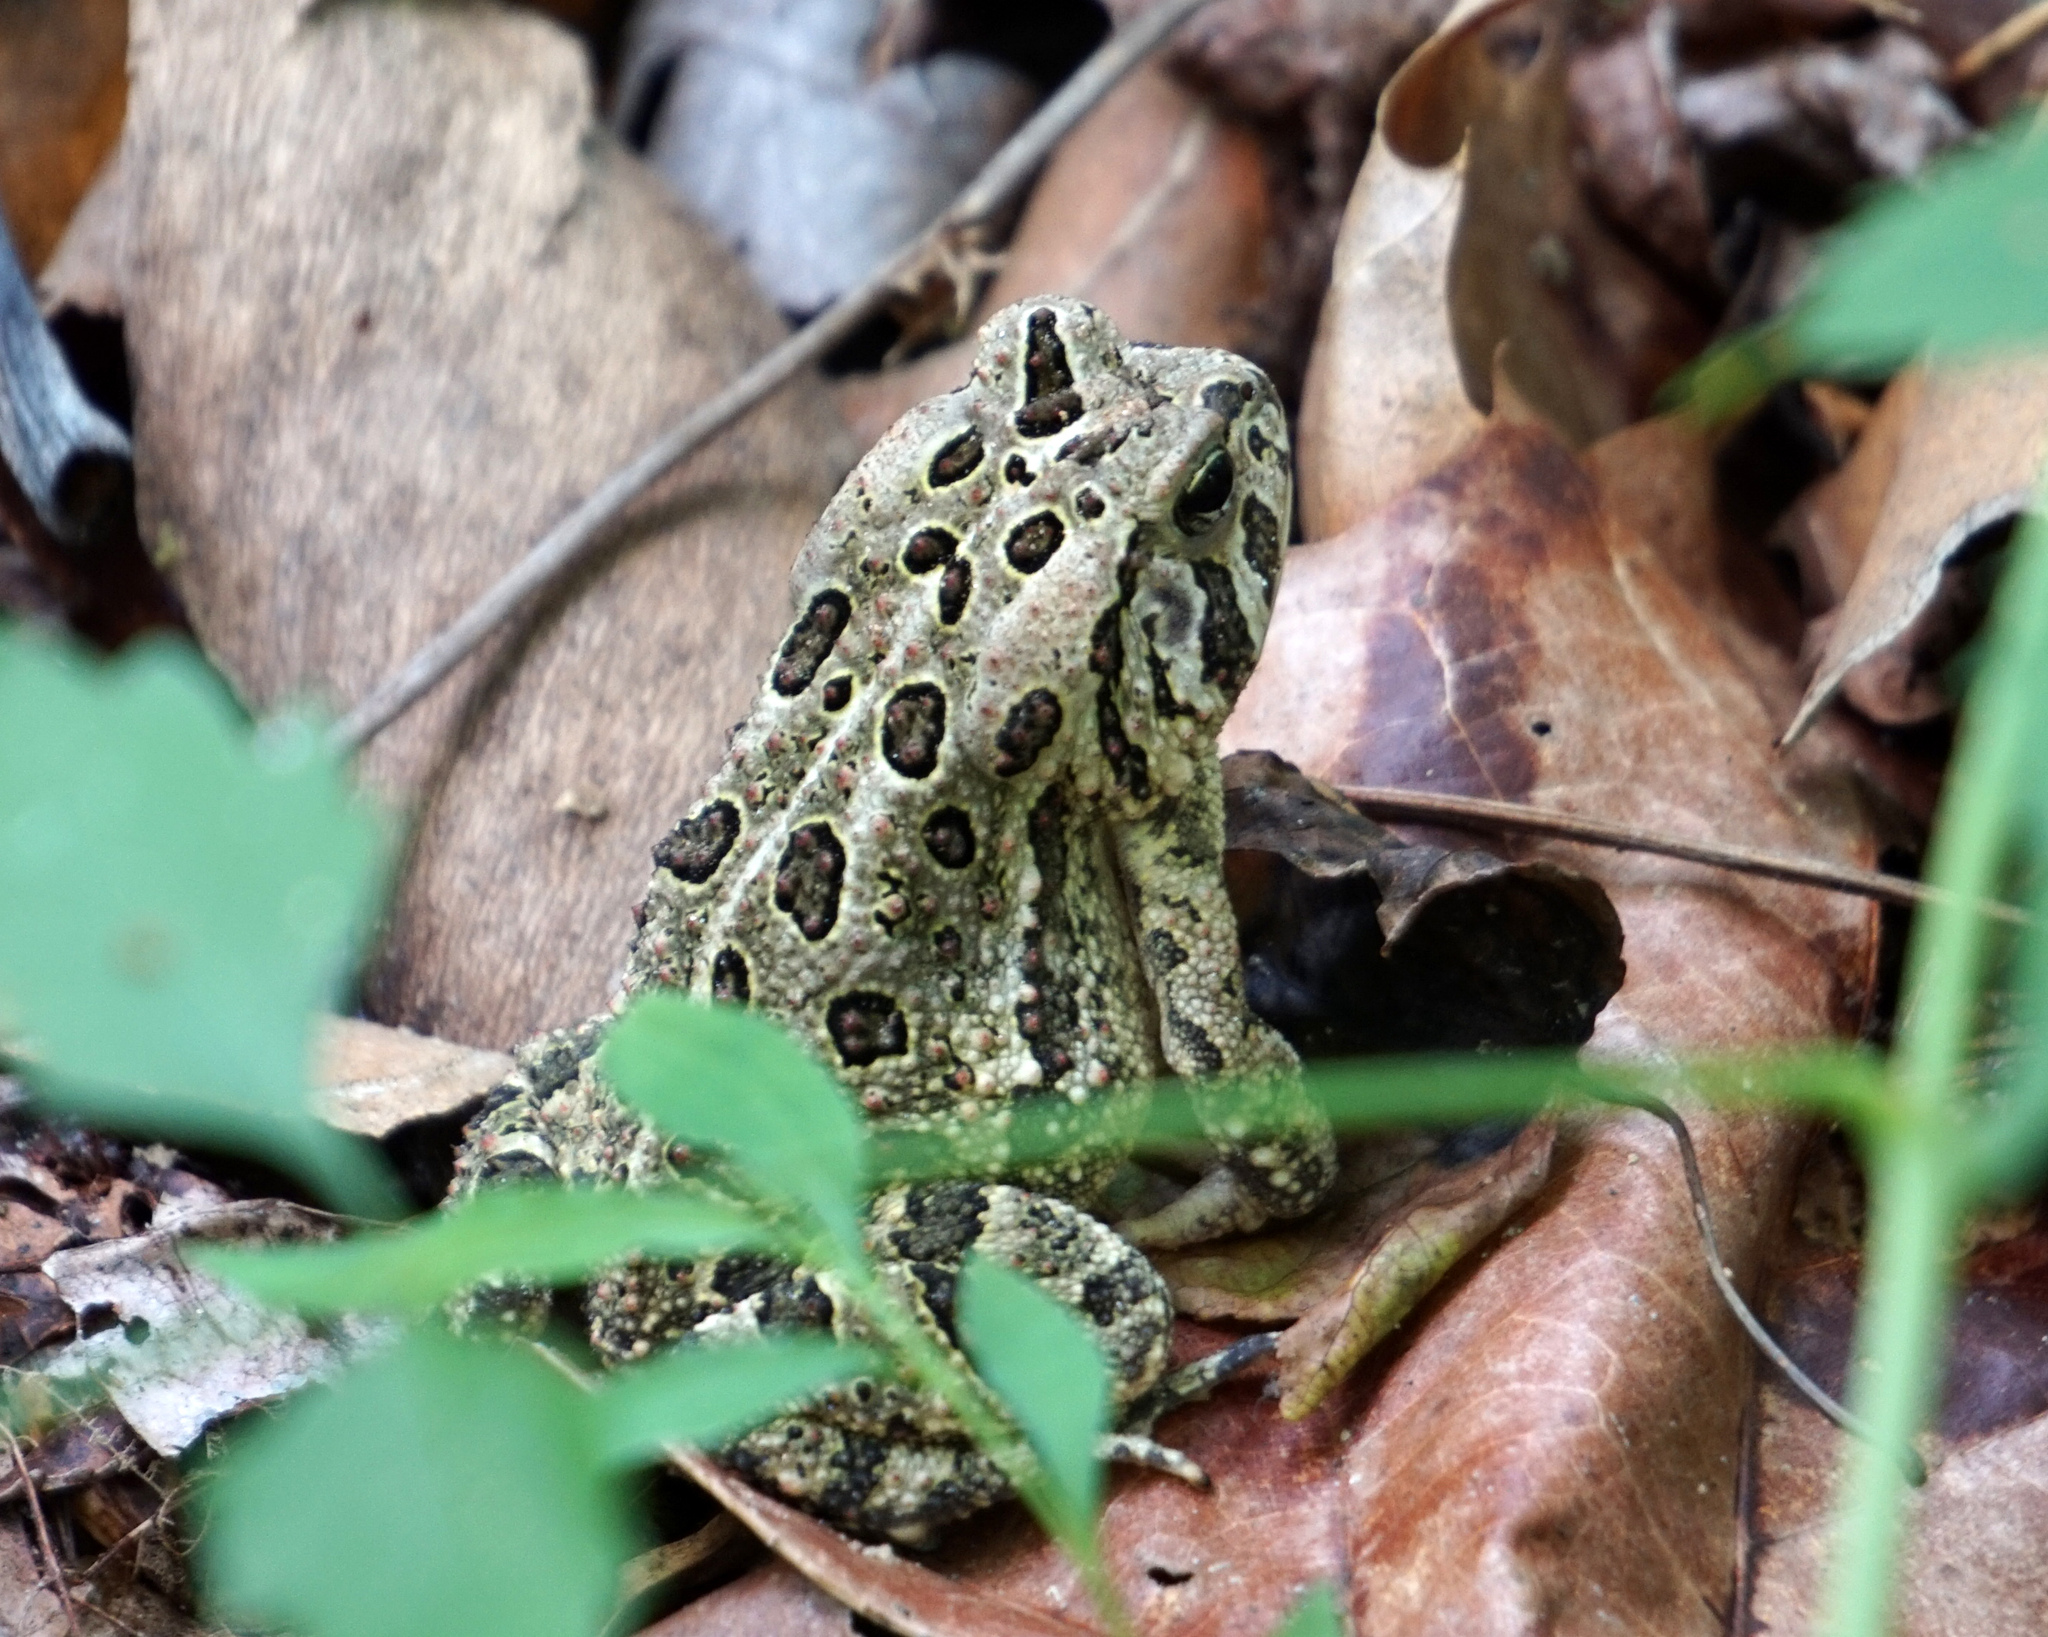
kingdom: Animalia
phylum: Chordata
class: Amphibia
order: Anura
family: Bufonidae
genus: Anaxyrus
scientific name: Anaxyrus fowleri
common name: Fowler's toad
